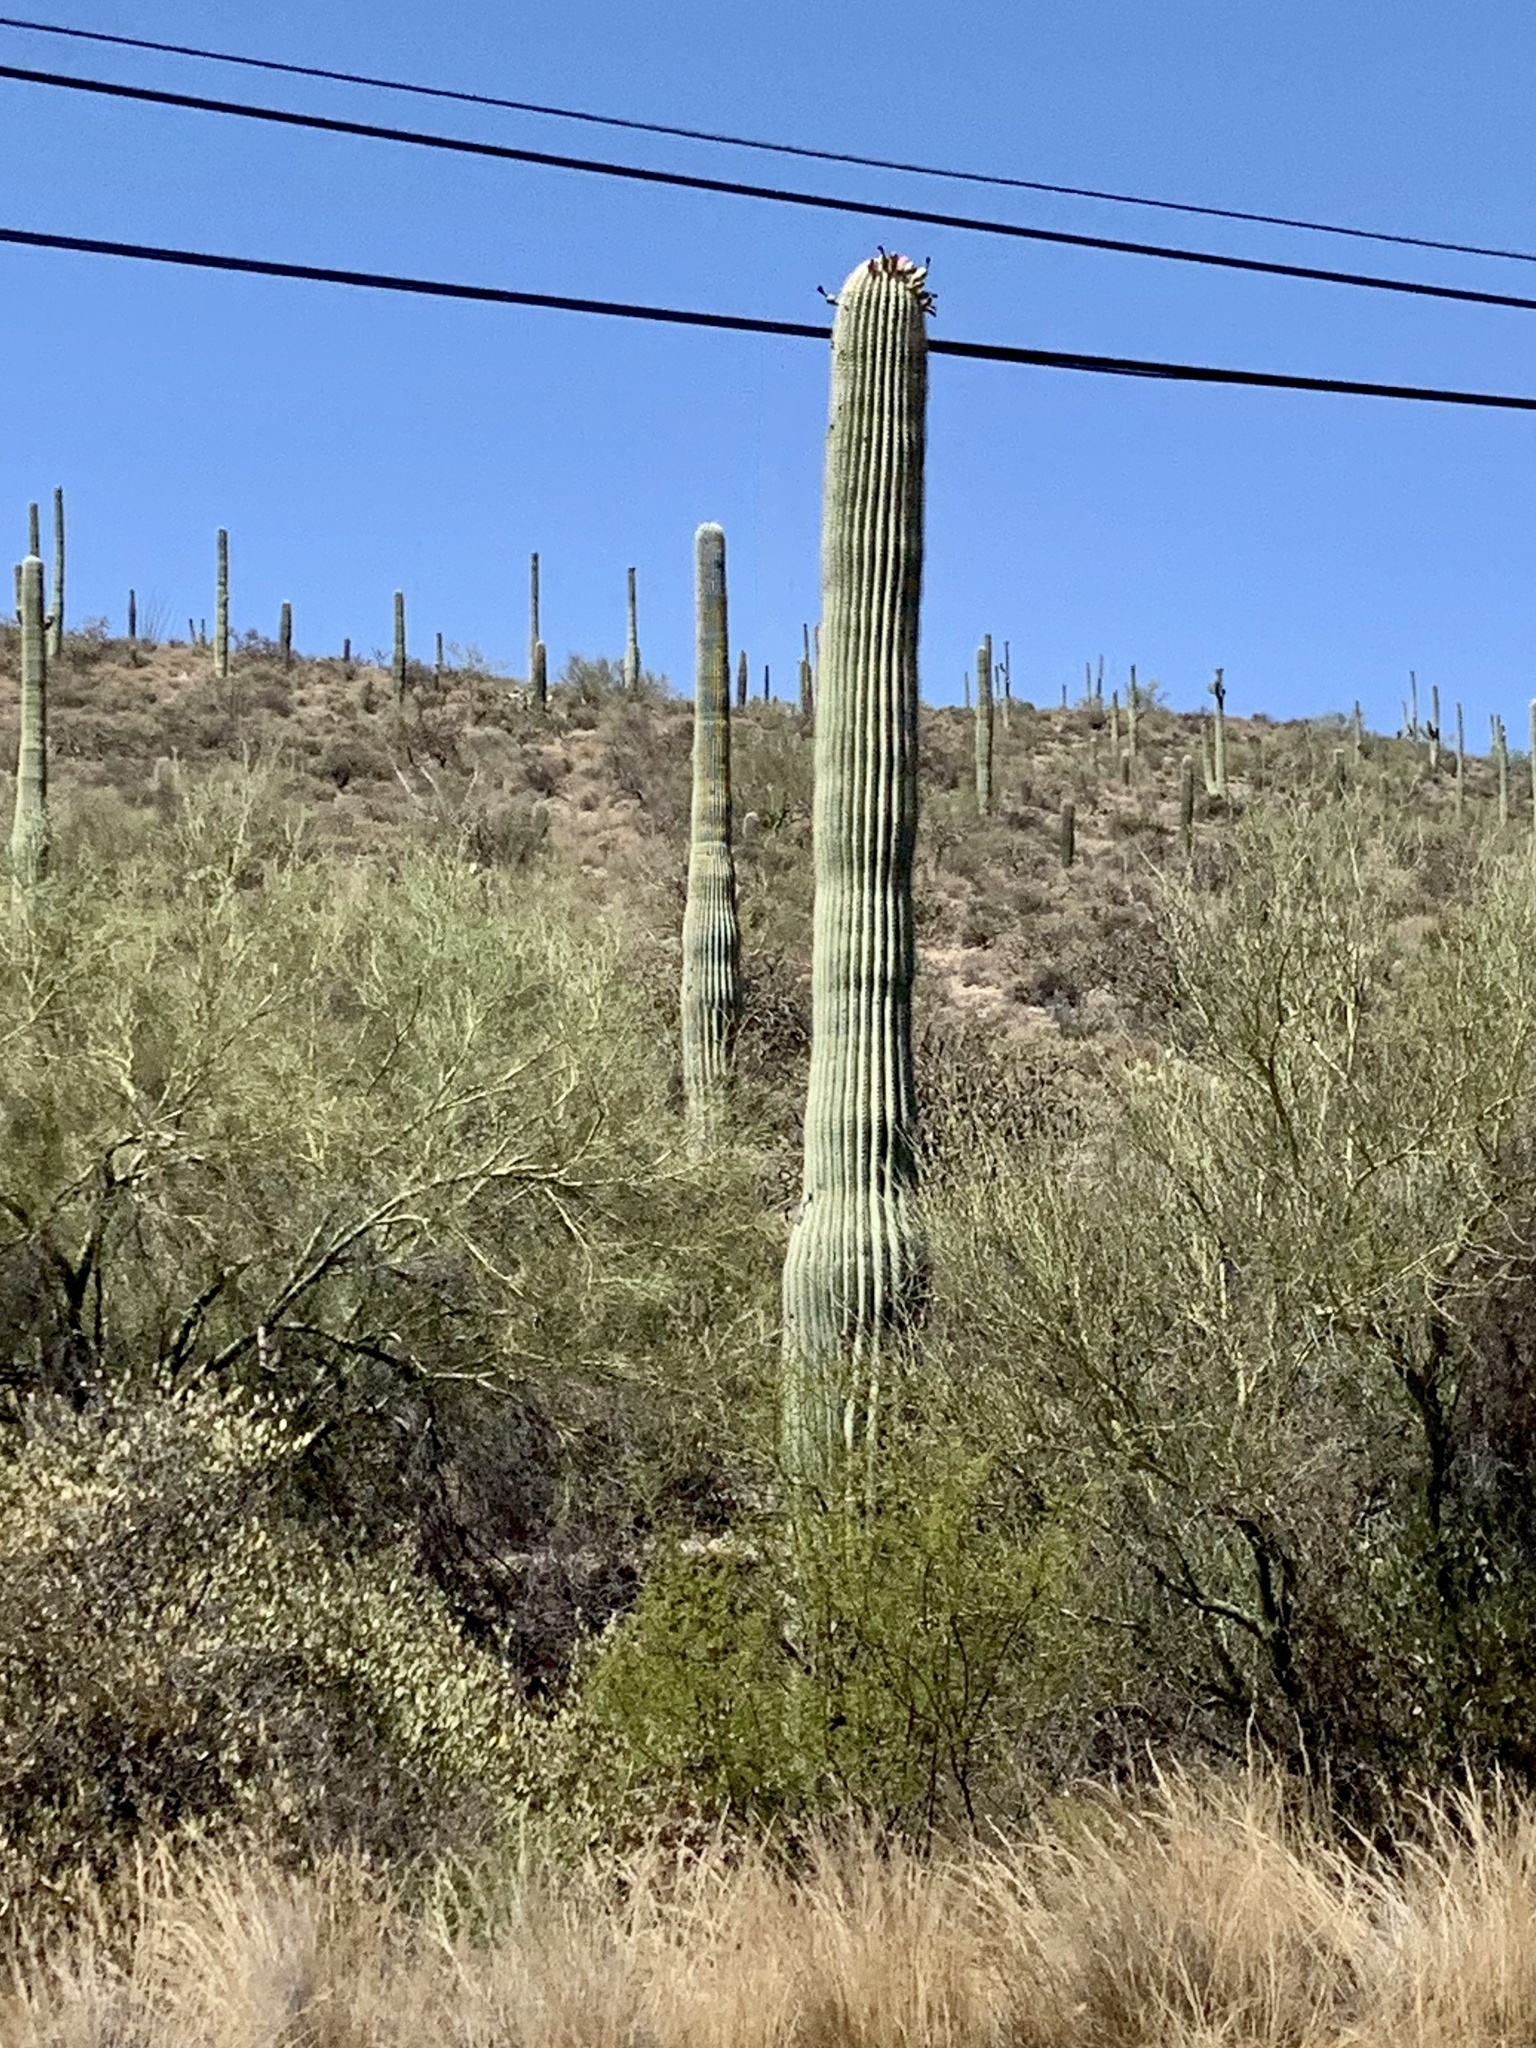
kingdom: Plantae
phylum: Tracheophyta
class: Magnoliopsida
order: Caryophyllales
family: Cactaceae
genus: Carnegiea
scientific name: Carnegiea gigantea
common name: Saguaro
